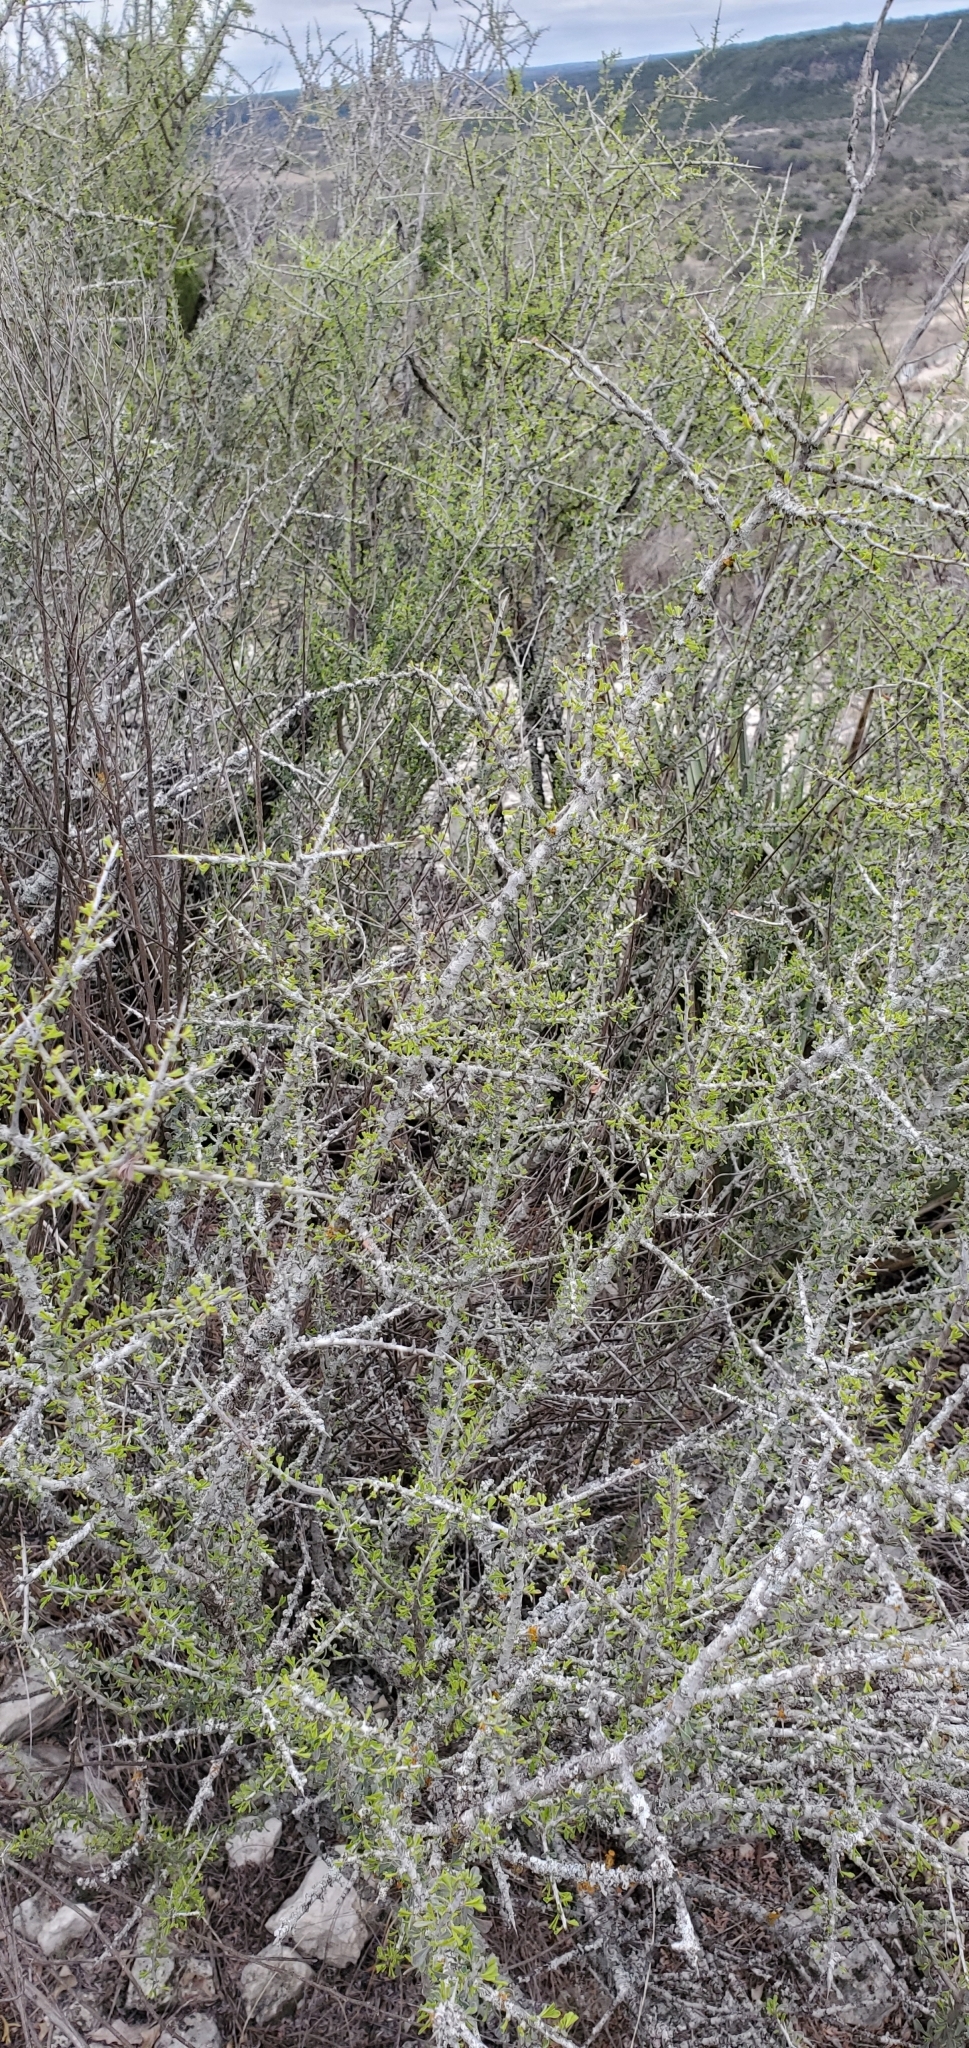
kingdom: Plantae
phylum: Tracheophyta
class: Magnoliopsida
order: Rosales
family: Rhamnaceae
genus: Condalia
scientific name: Condalia spathulata
